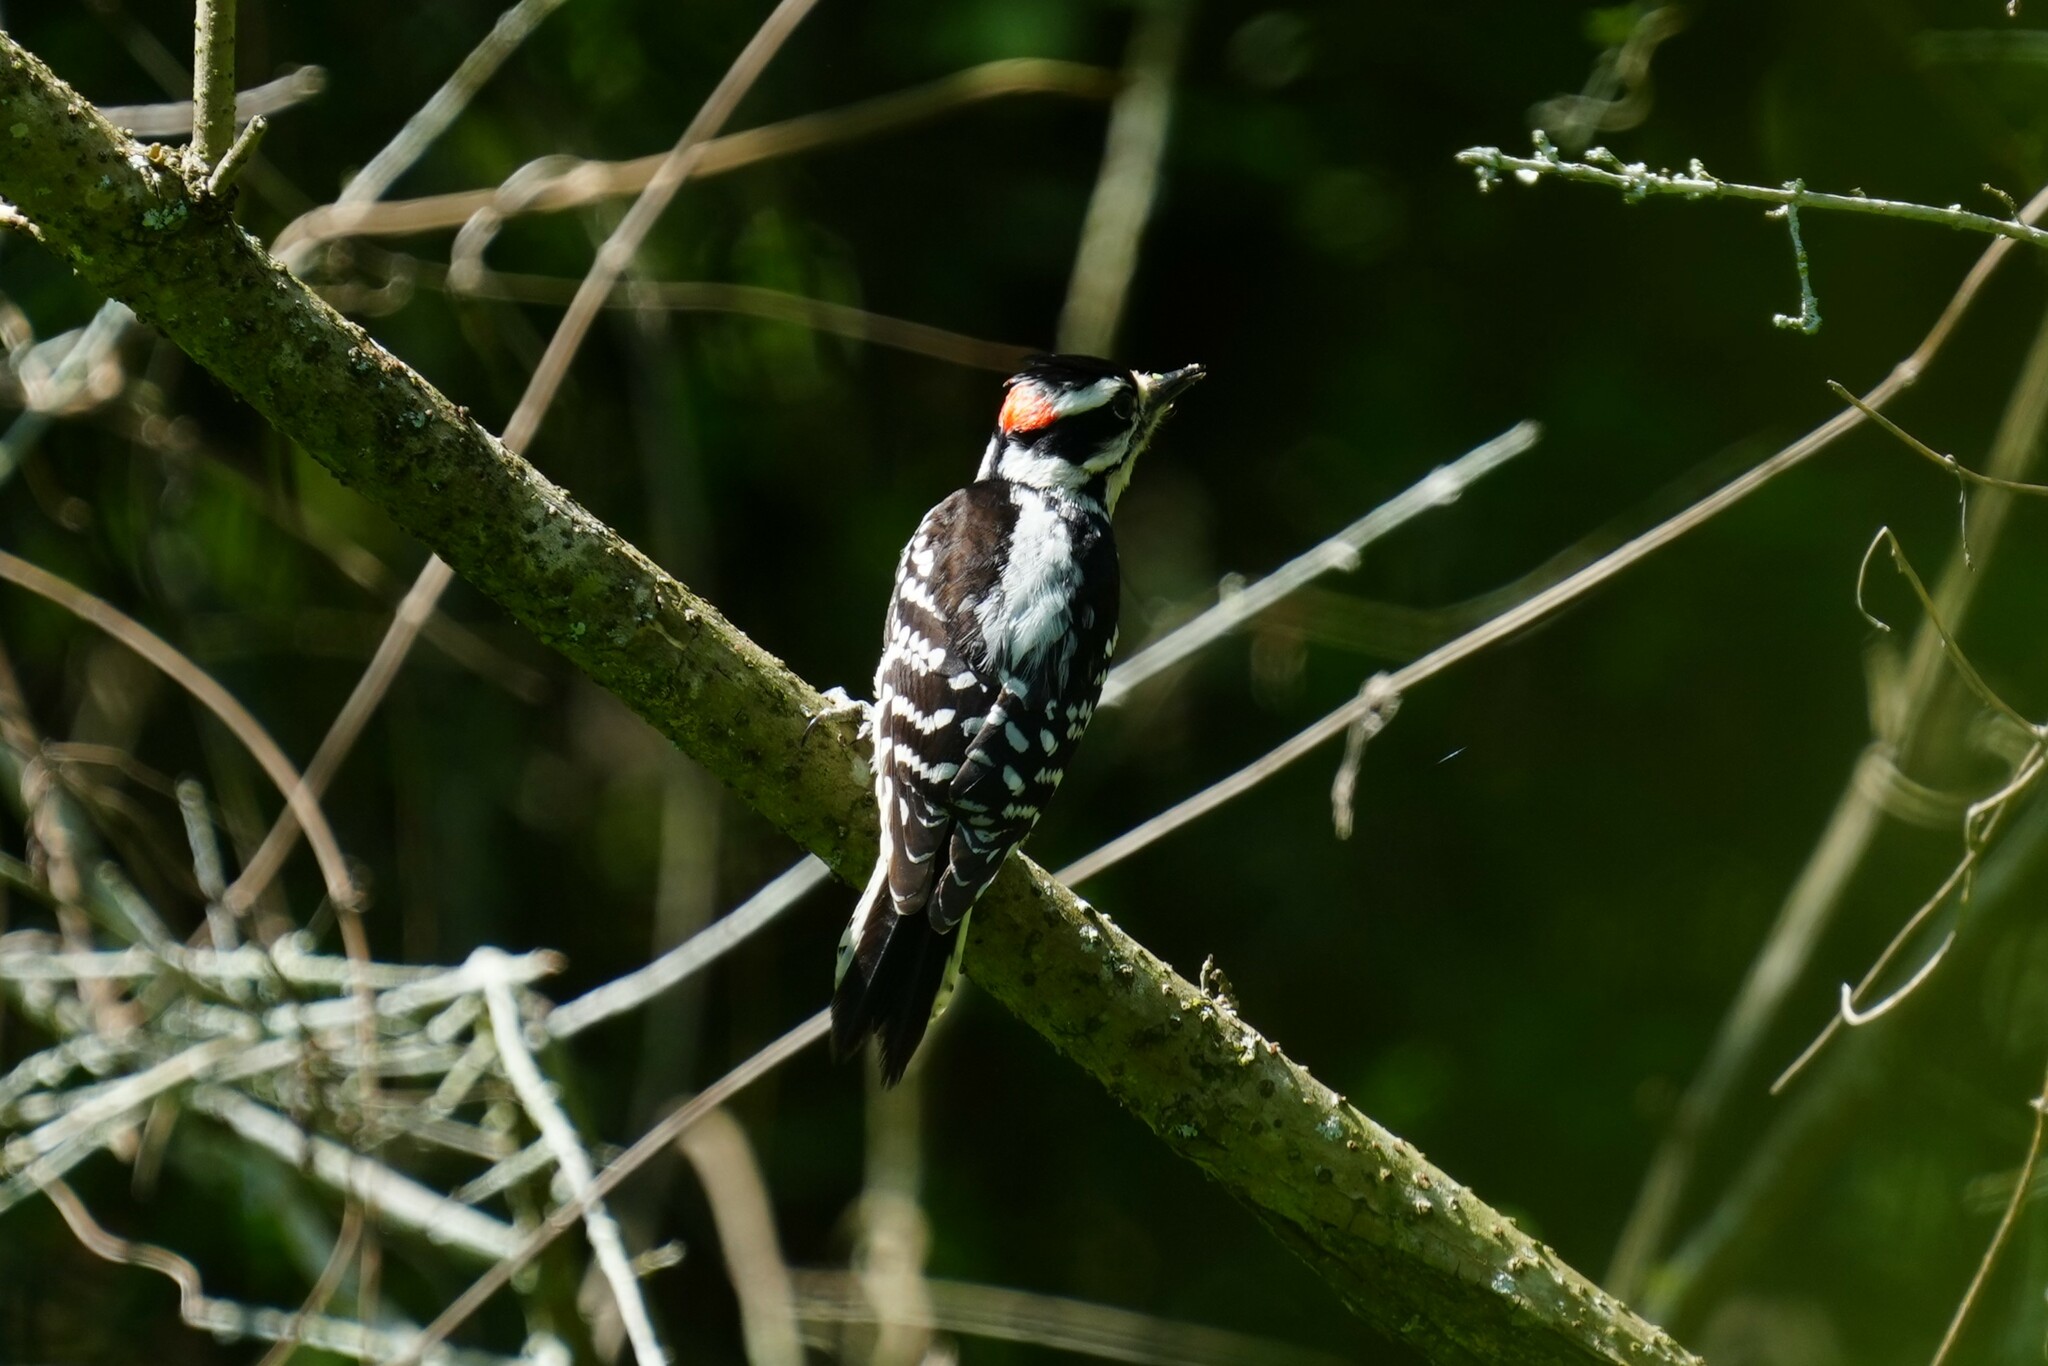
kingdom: Animalia
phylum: Chordata
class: Aves
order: Piciformes
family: Picidae
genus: Dryobates
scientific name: Dryobates pubescens
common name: Downy woodpecker
